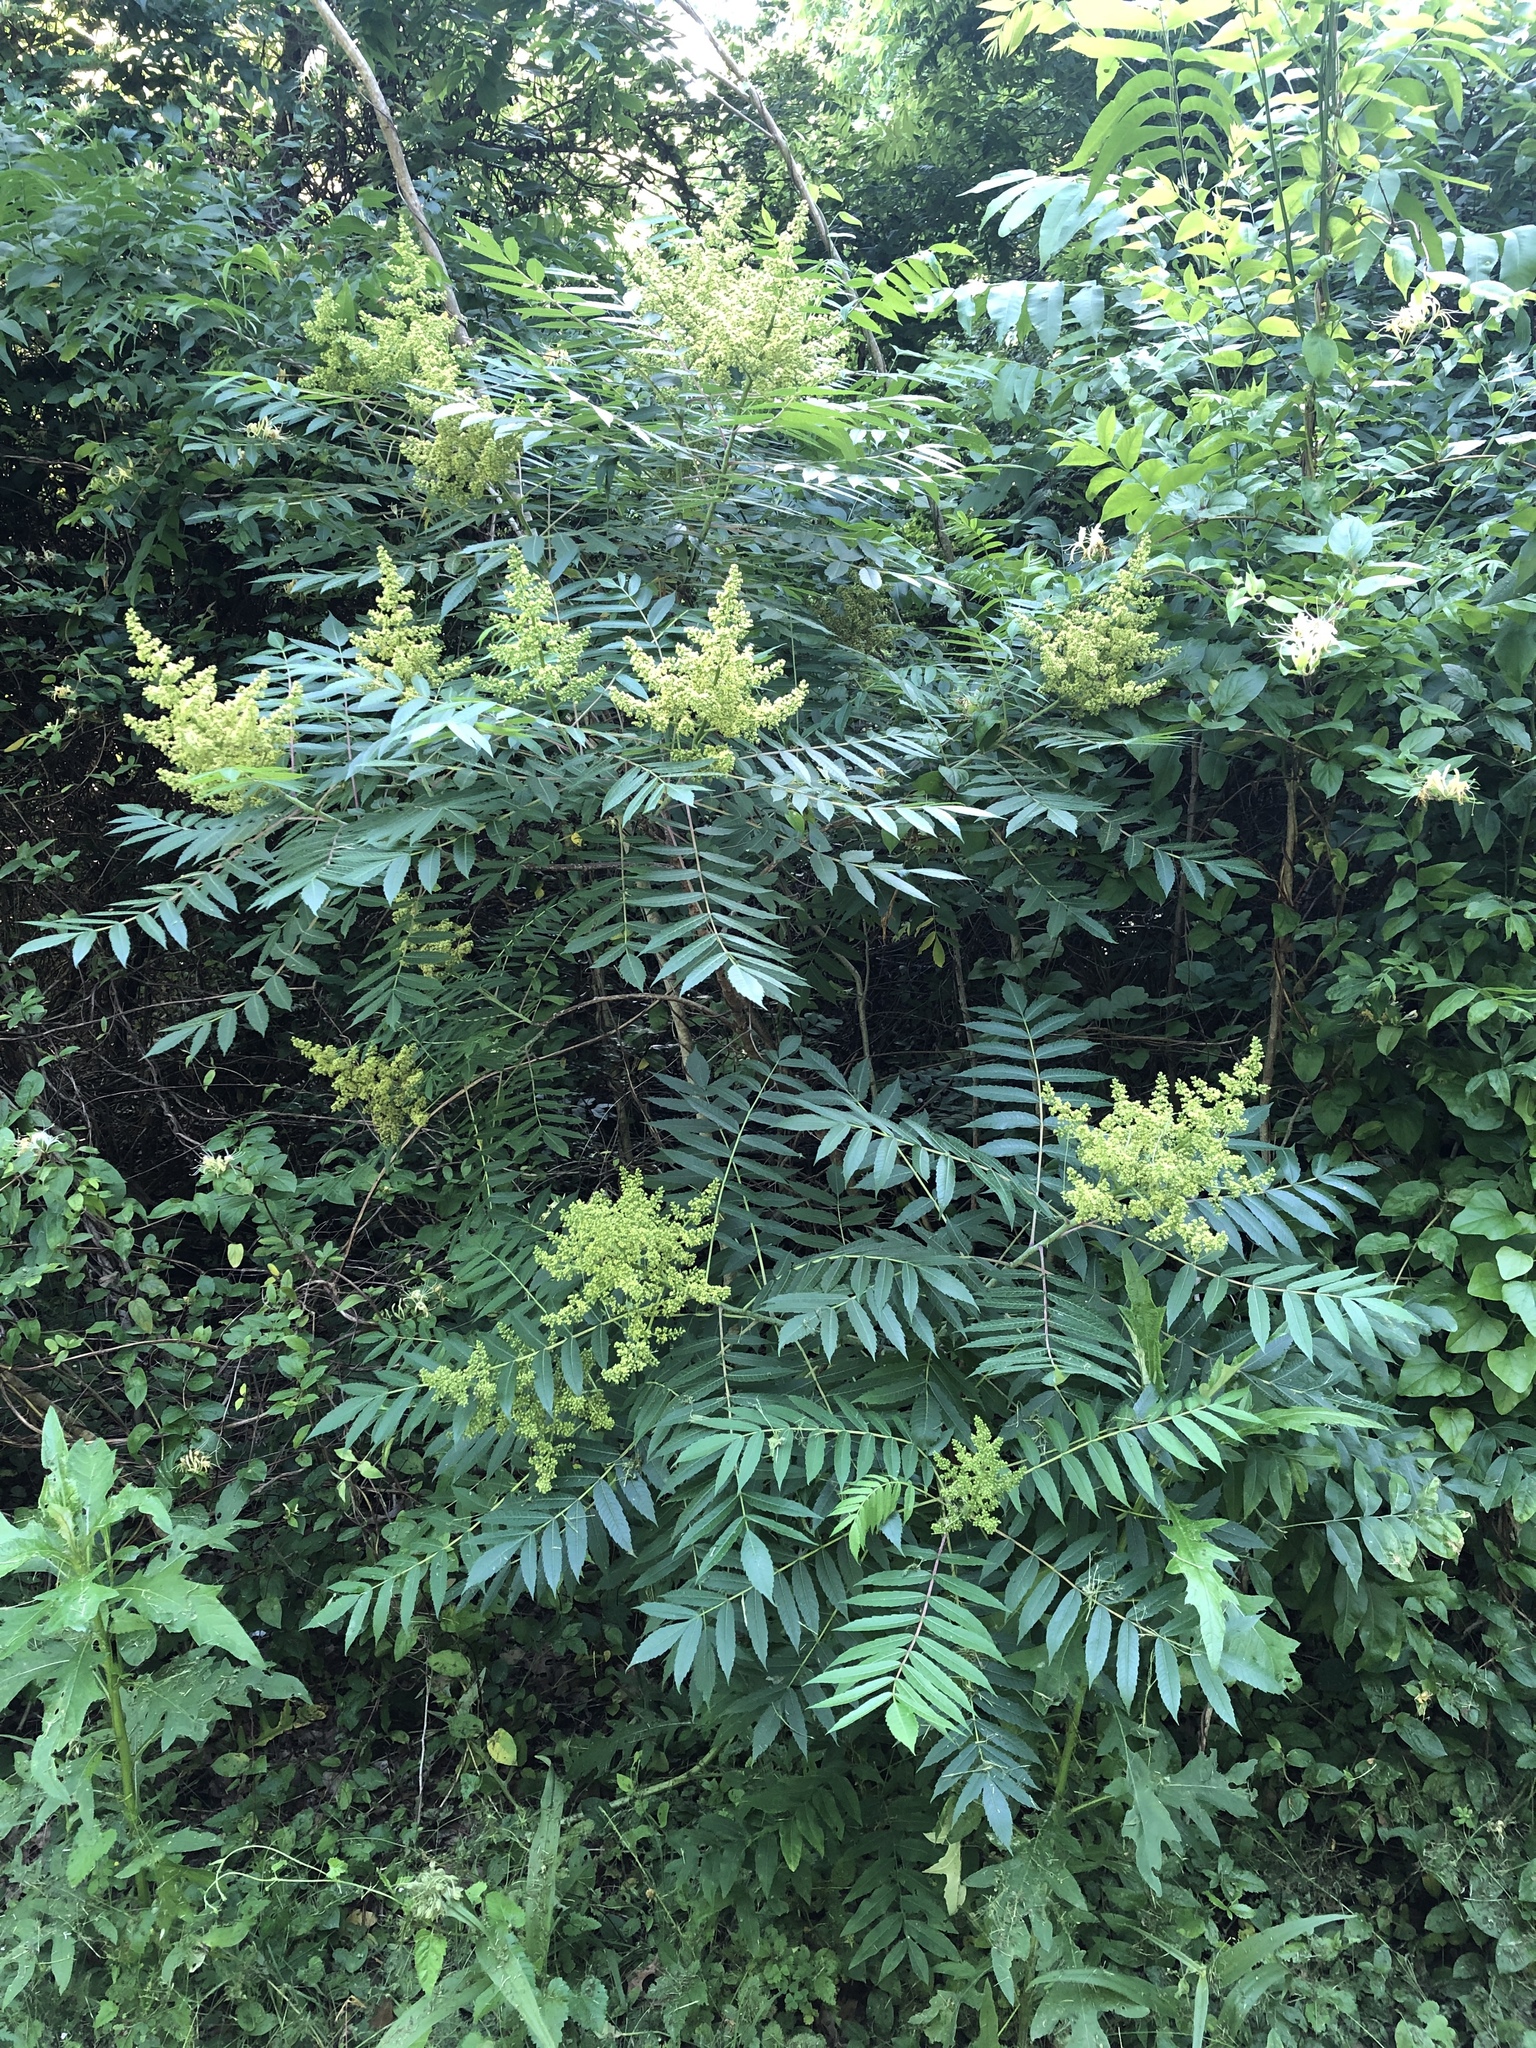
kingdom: Plantae
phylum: Tracheophyta
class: Magnoliopsida
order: Sapindales
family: Anacardiaceae
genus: Rhus
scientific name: Rhus glabra
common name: Scarlet sumac
